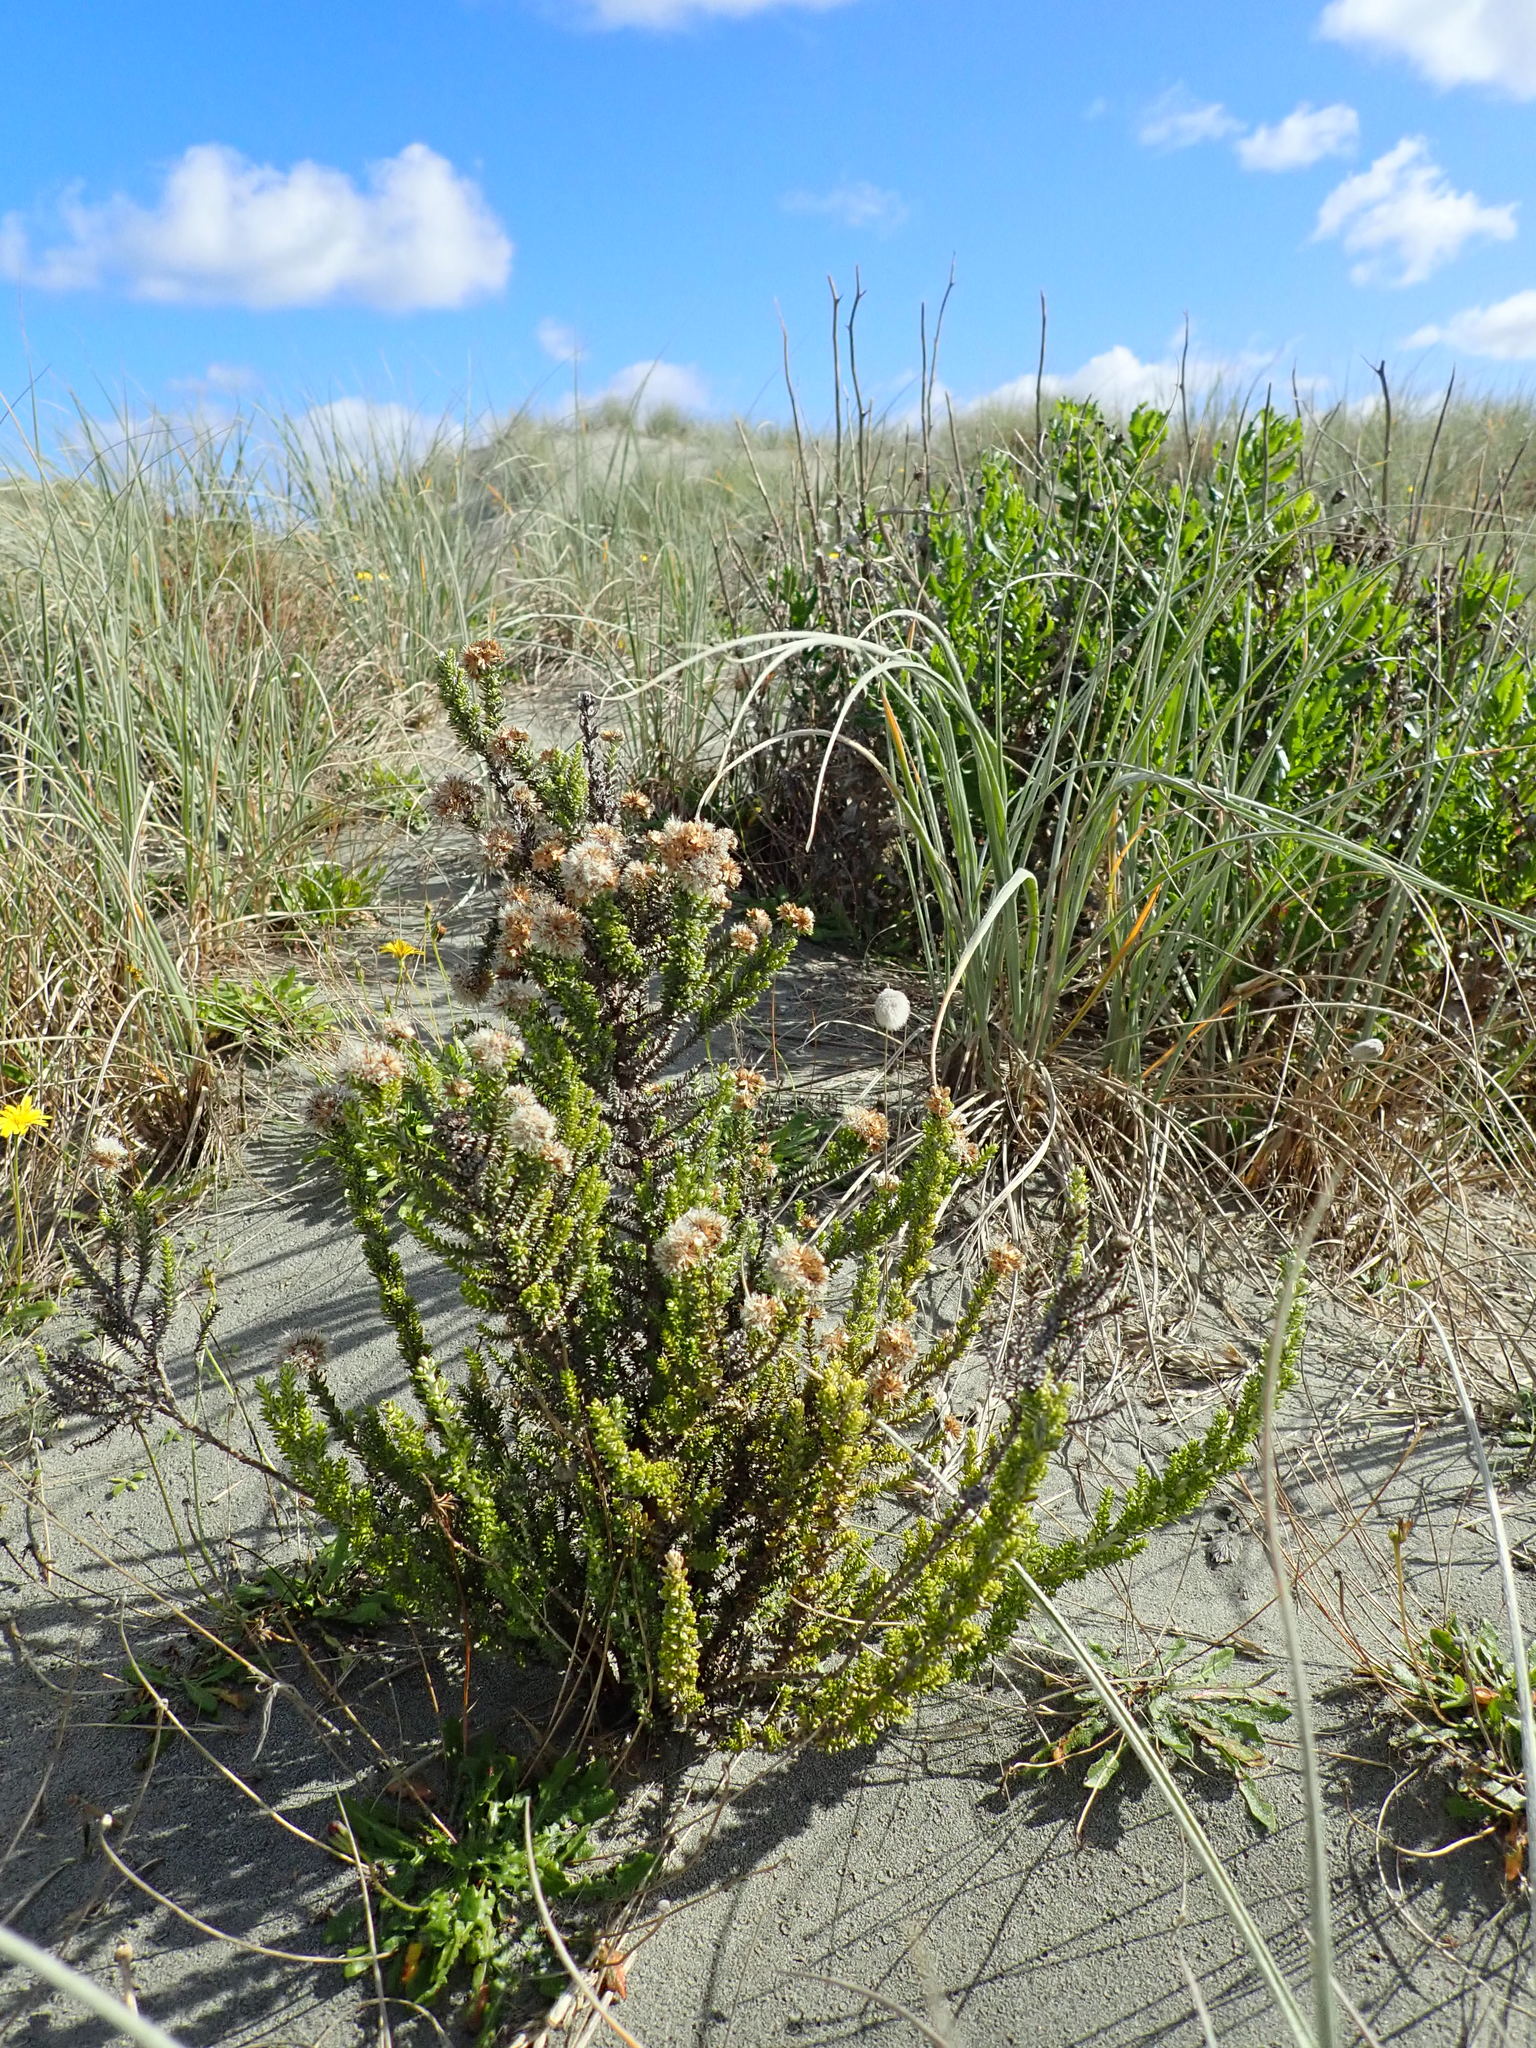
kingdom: Plantae
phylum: Tracheophyta
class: Magnoliopsida
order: Asterales
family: Asteraceae
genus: Ozothamnus
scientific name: Ozothamnus leptophyllus
